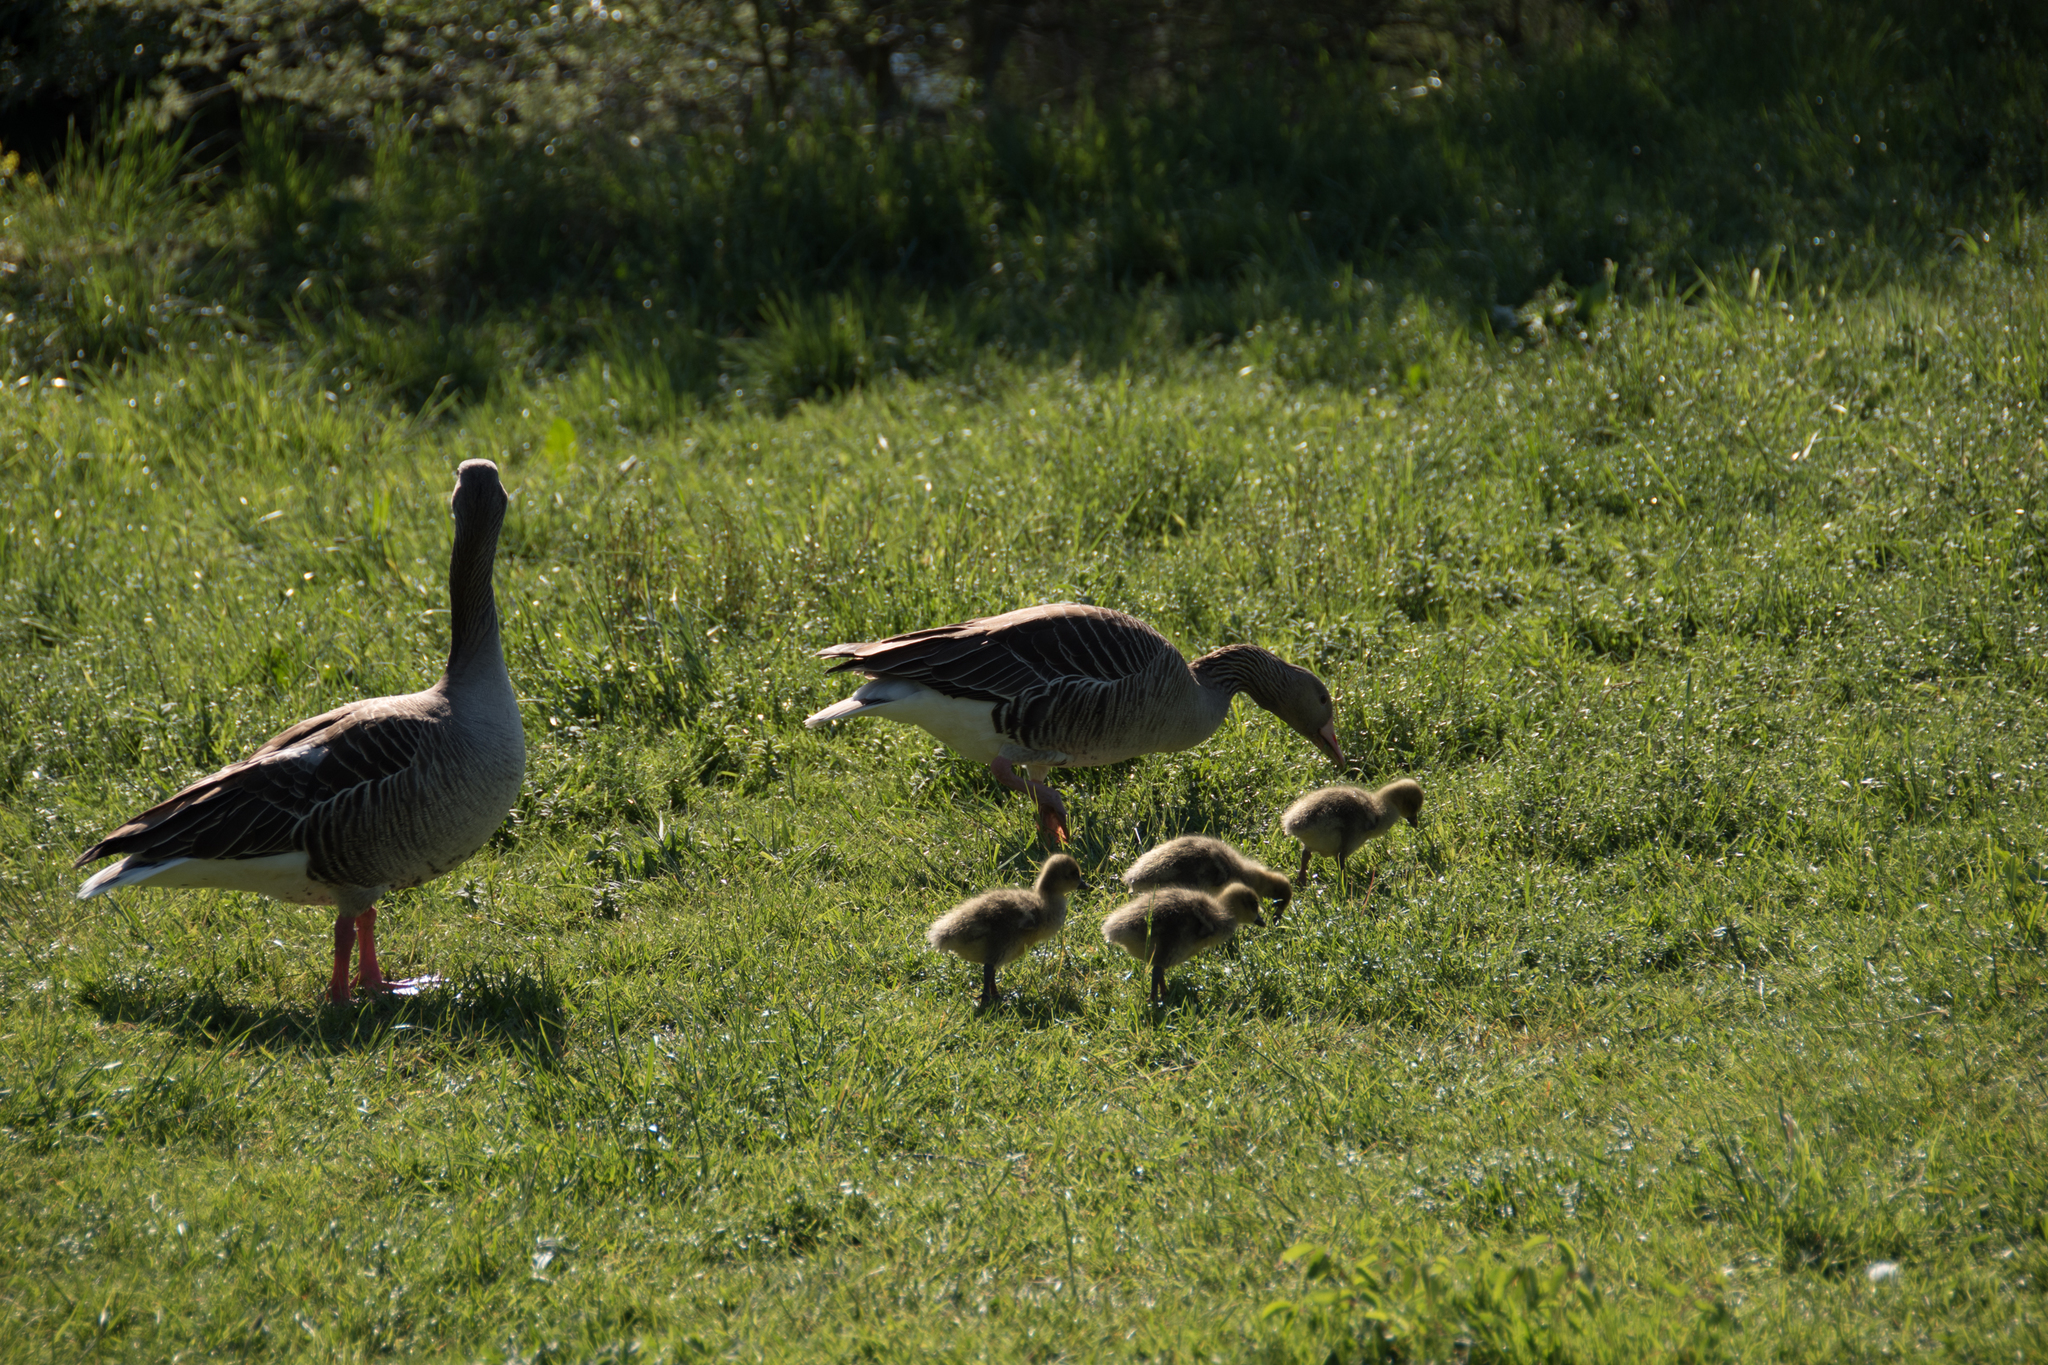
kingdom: Animalia
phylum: Chordata
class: Aves
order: Anseriformes
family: Anatidae
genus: Anser
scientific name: Anser anser
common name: Greylag goose
